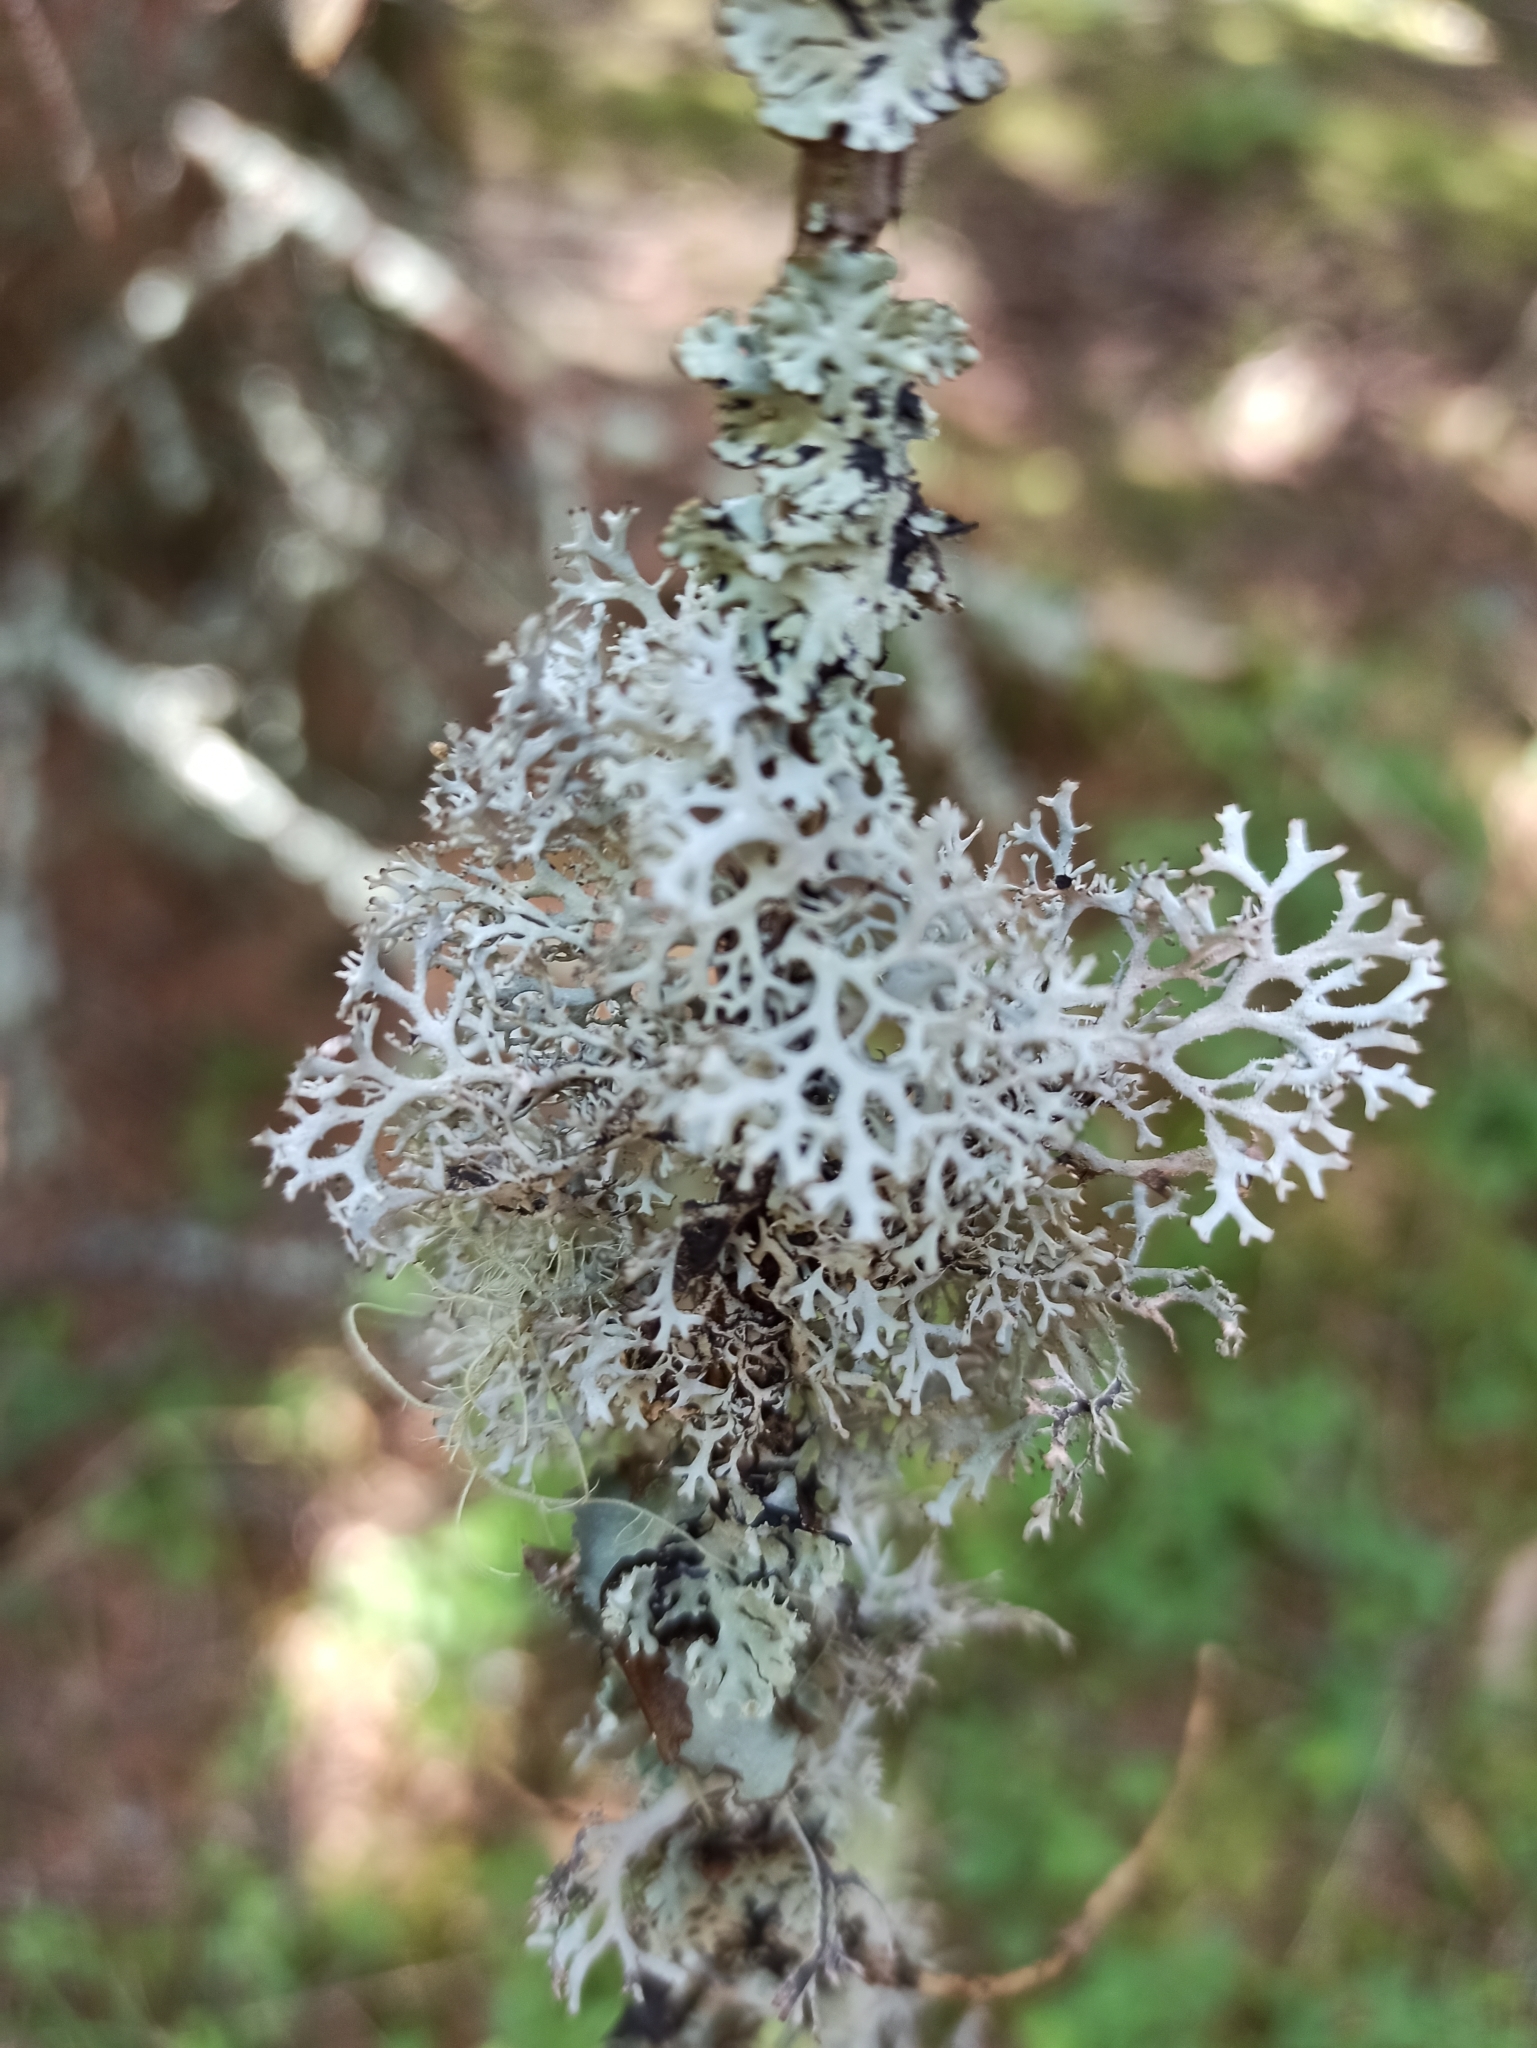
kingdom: Fungi
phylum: Ascomycota
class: Lecanoromycetes
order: Lecanorales
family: Parmeliaceae
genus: Pseudevernia
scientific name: Pseudevernia furfuracea
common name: Tree moss
